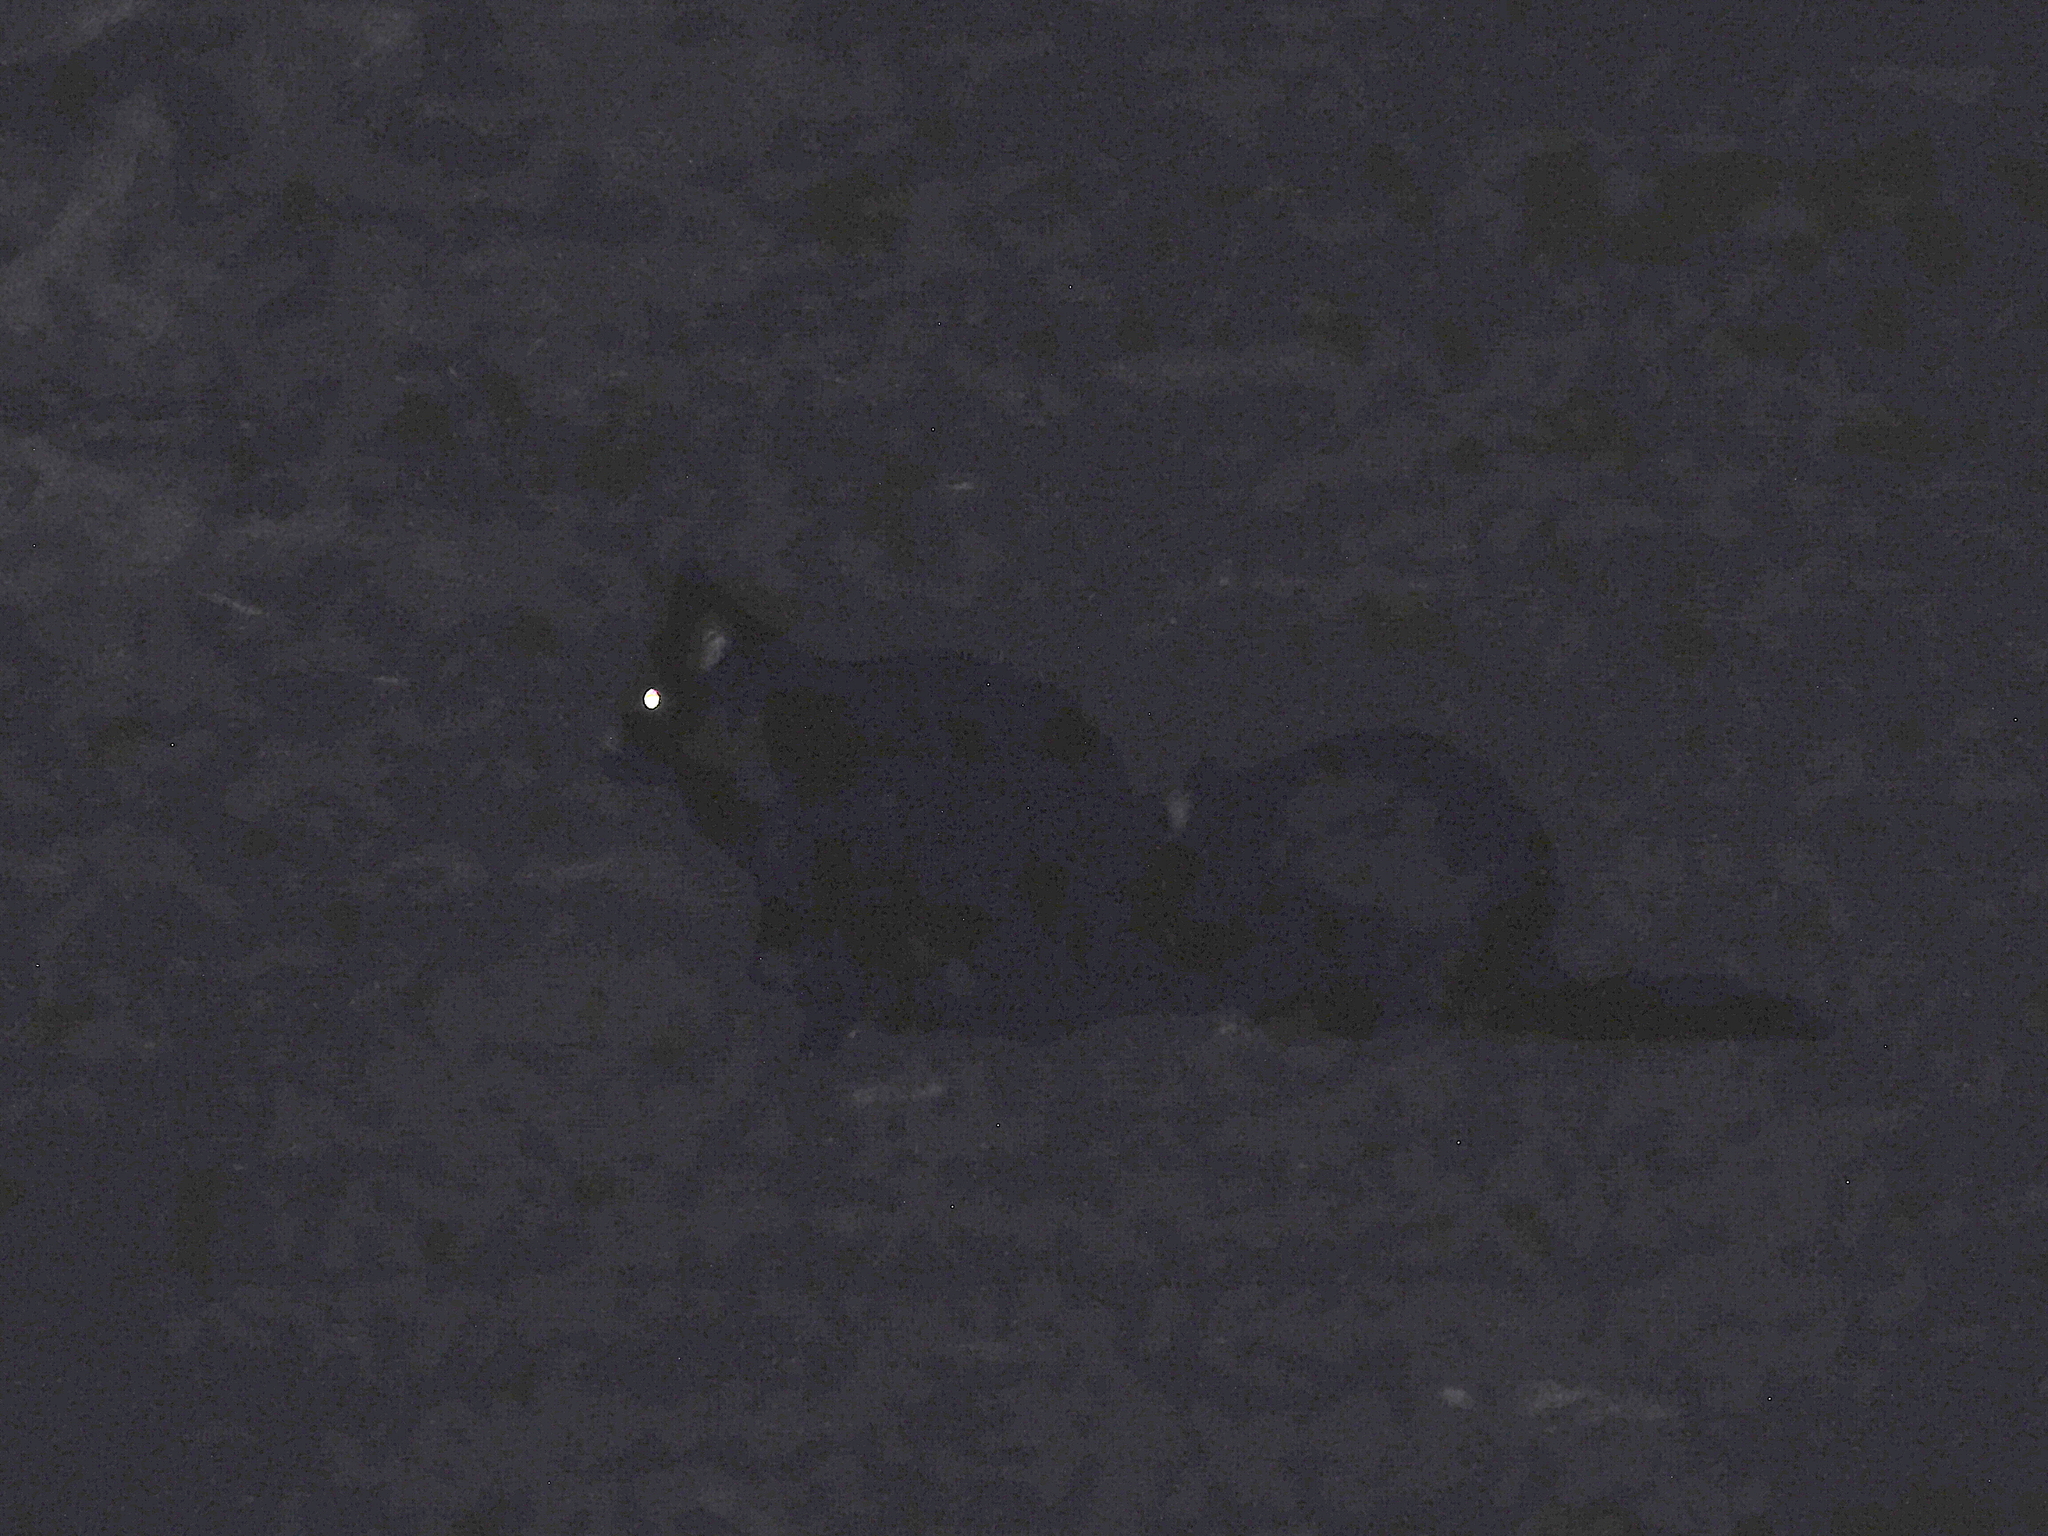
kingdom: Animalia
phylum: Chordata
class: Mammalia
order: Diprotodontia
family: Phalangeridae
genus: Trichosurus
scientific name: Trichosurus vulpecula
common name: Common brushtail
